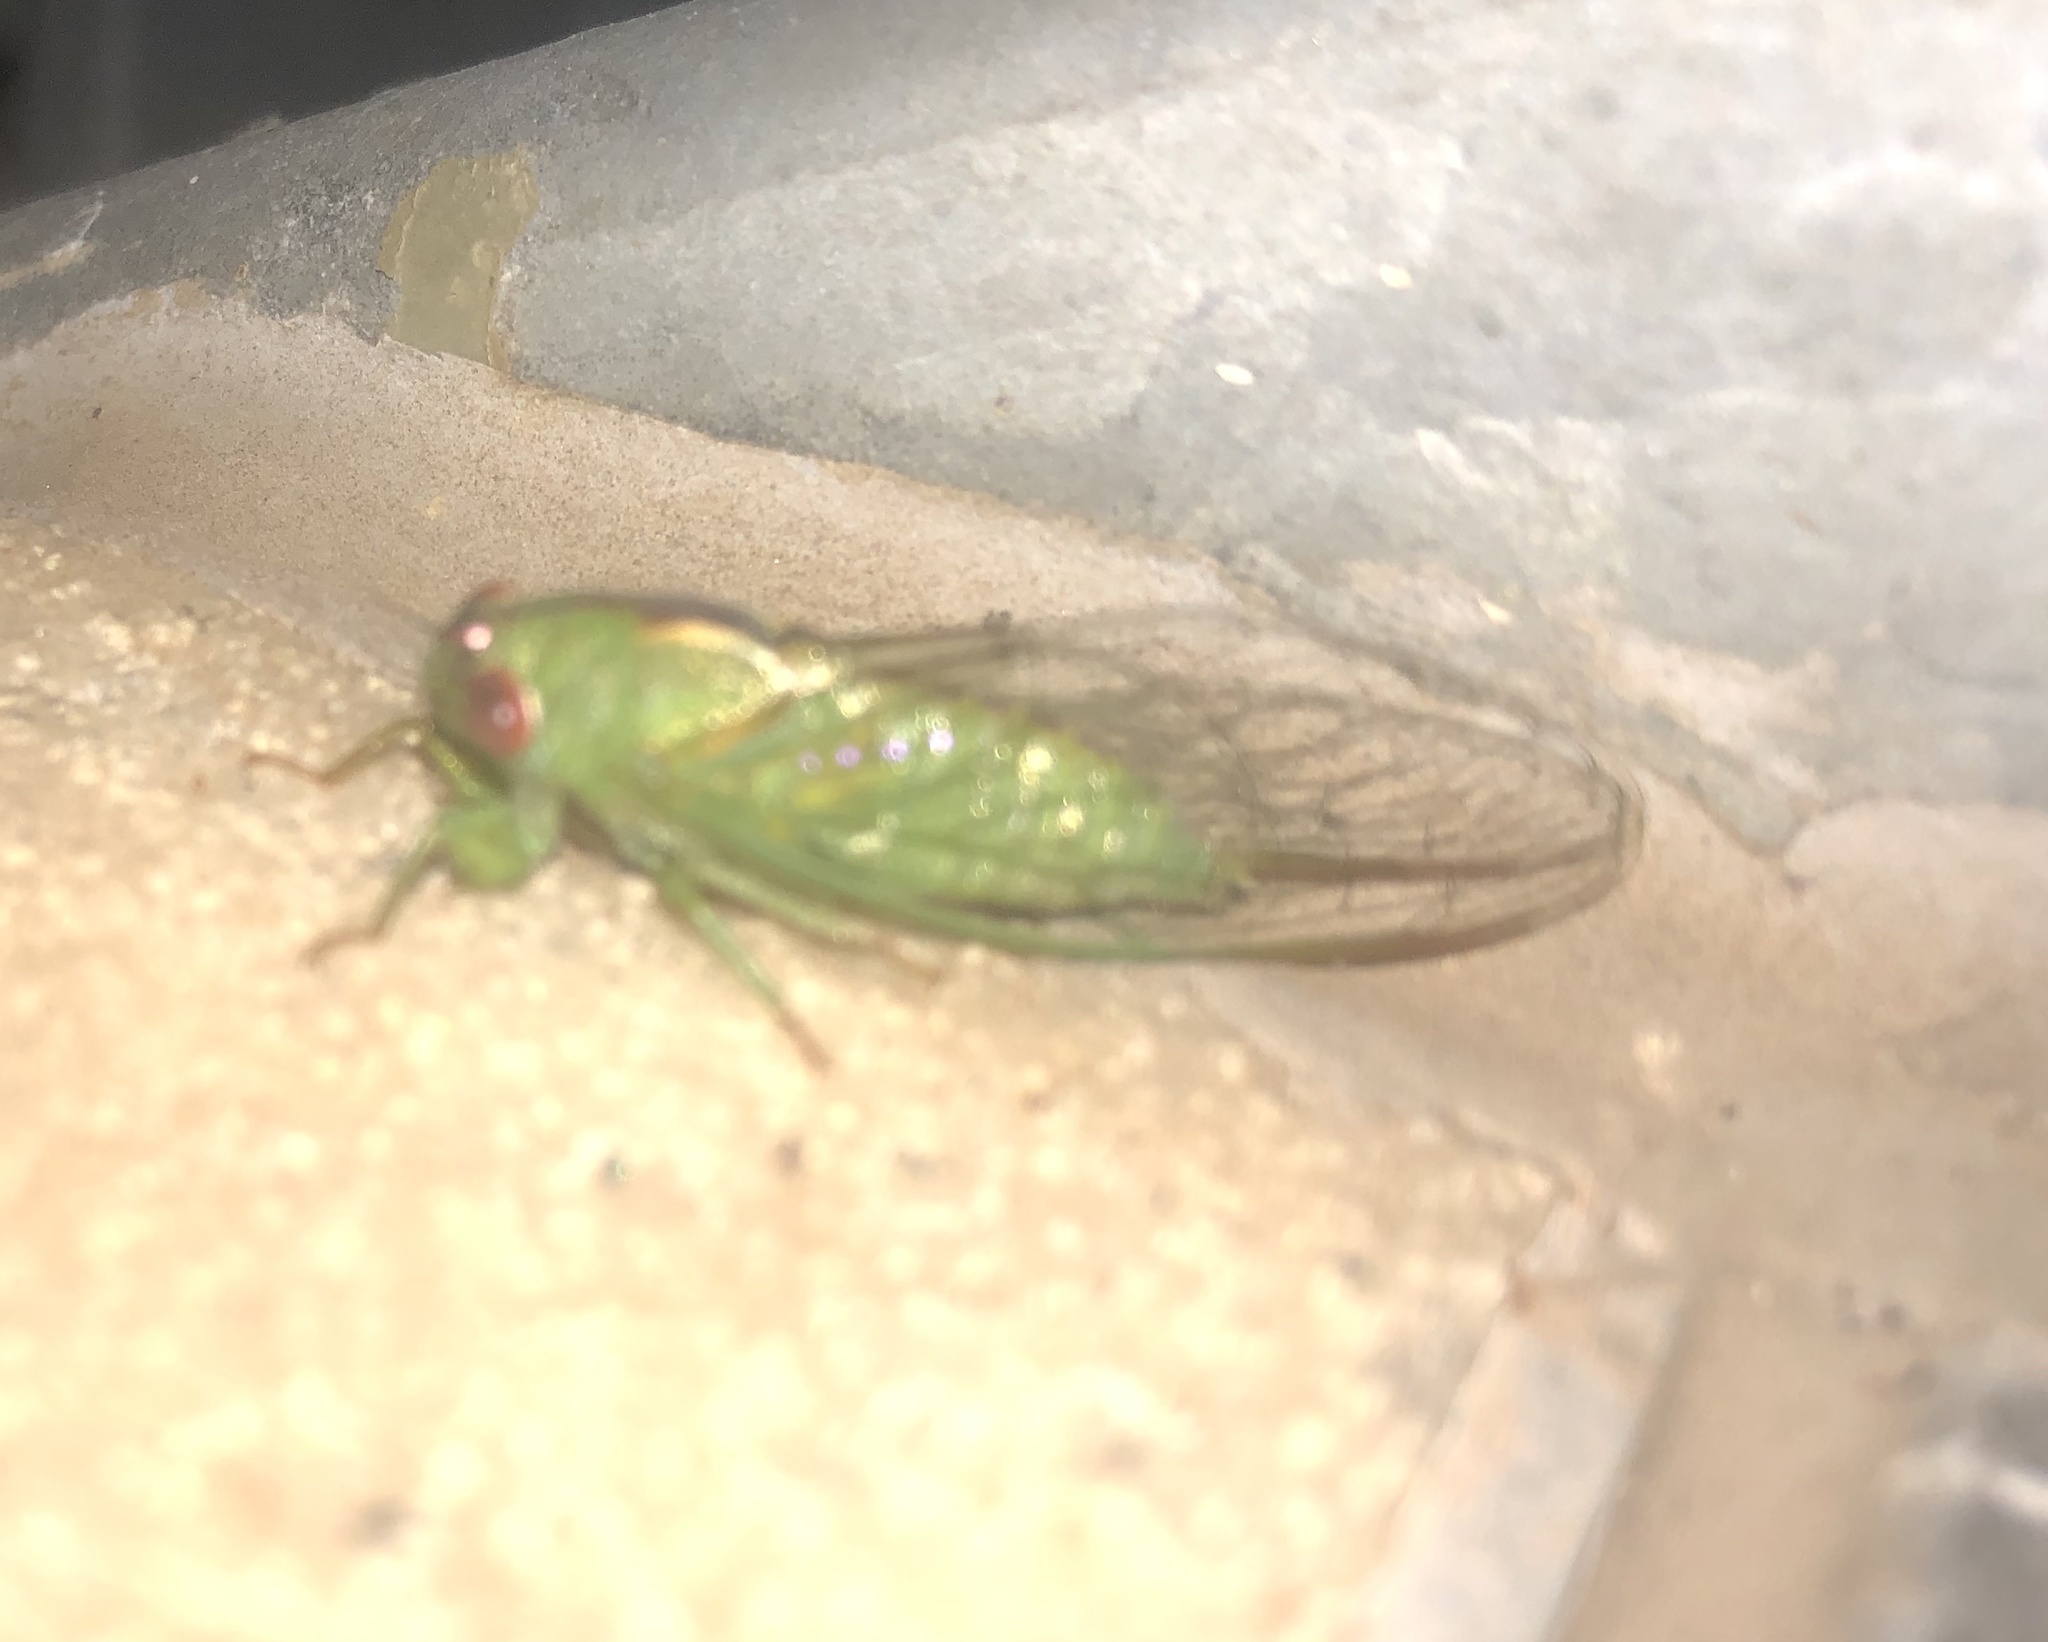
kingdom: Animalia
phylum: Arthropoda
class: Insecta
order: Hemiptera
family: Cicadidae
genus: Ewartia
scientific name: Ewartia roberti
